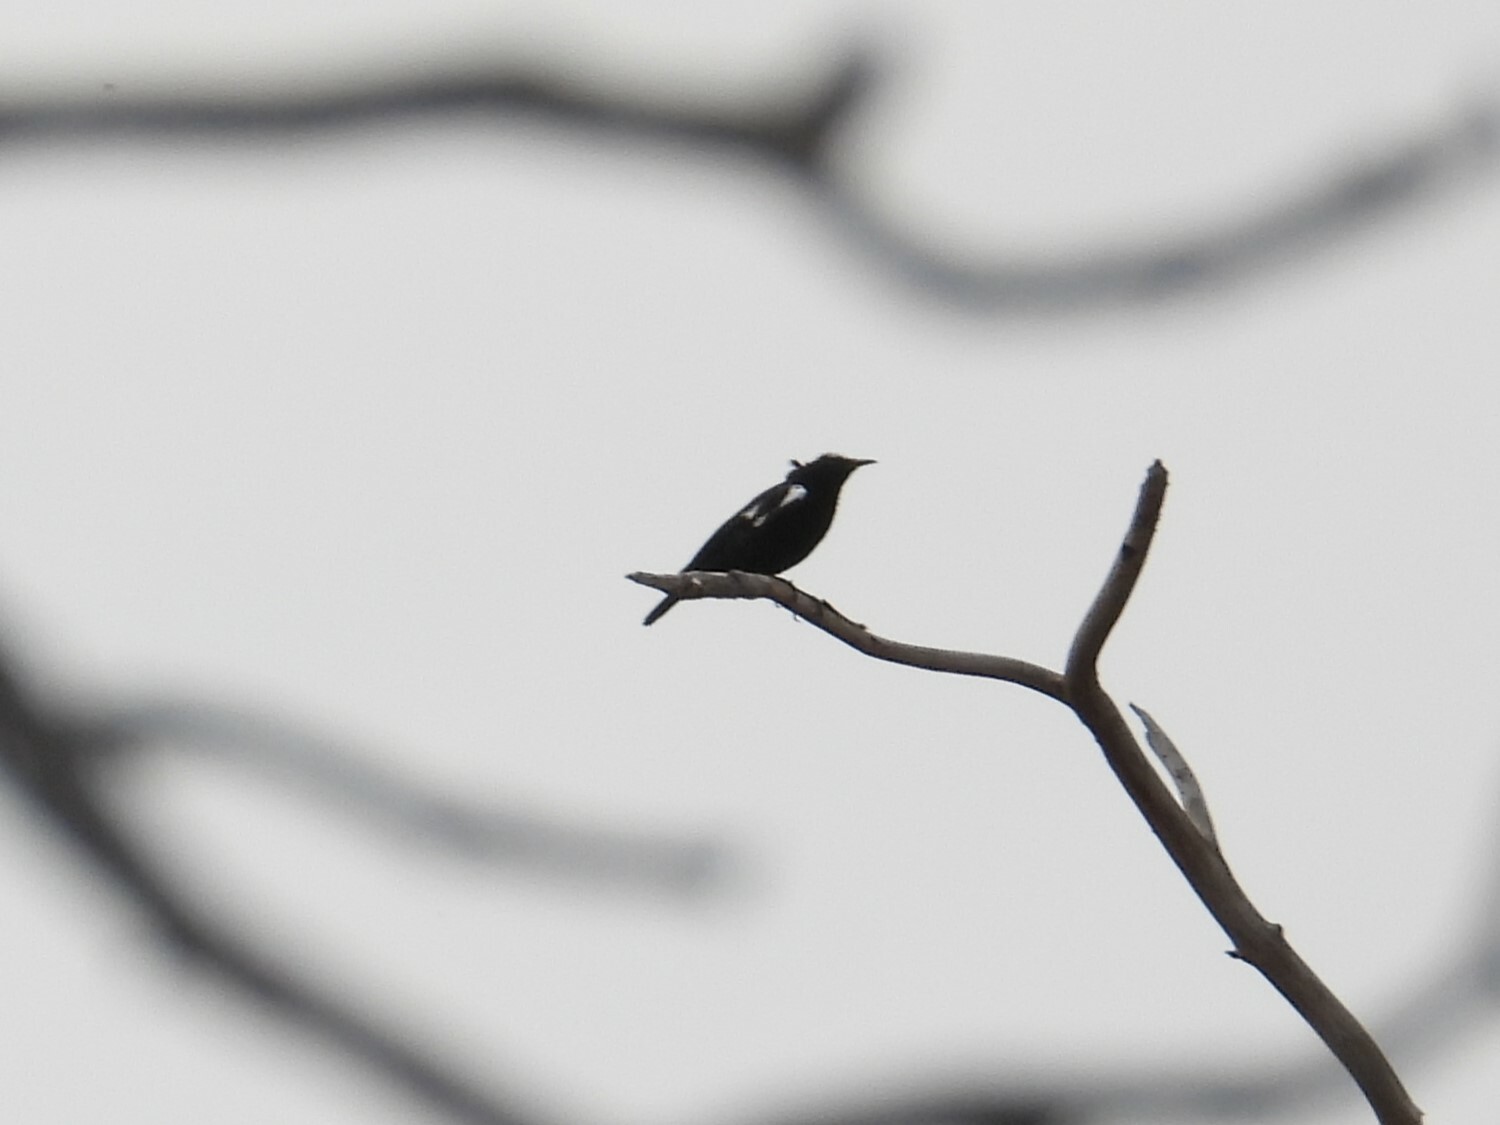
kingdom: Animalia
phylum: Chordata
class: Aves
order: Passeriformes
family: Muscicapidae
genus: Pentholaea
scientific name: Pentholaea arnotti
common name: Arnot's chat
